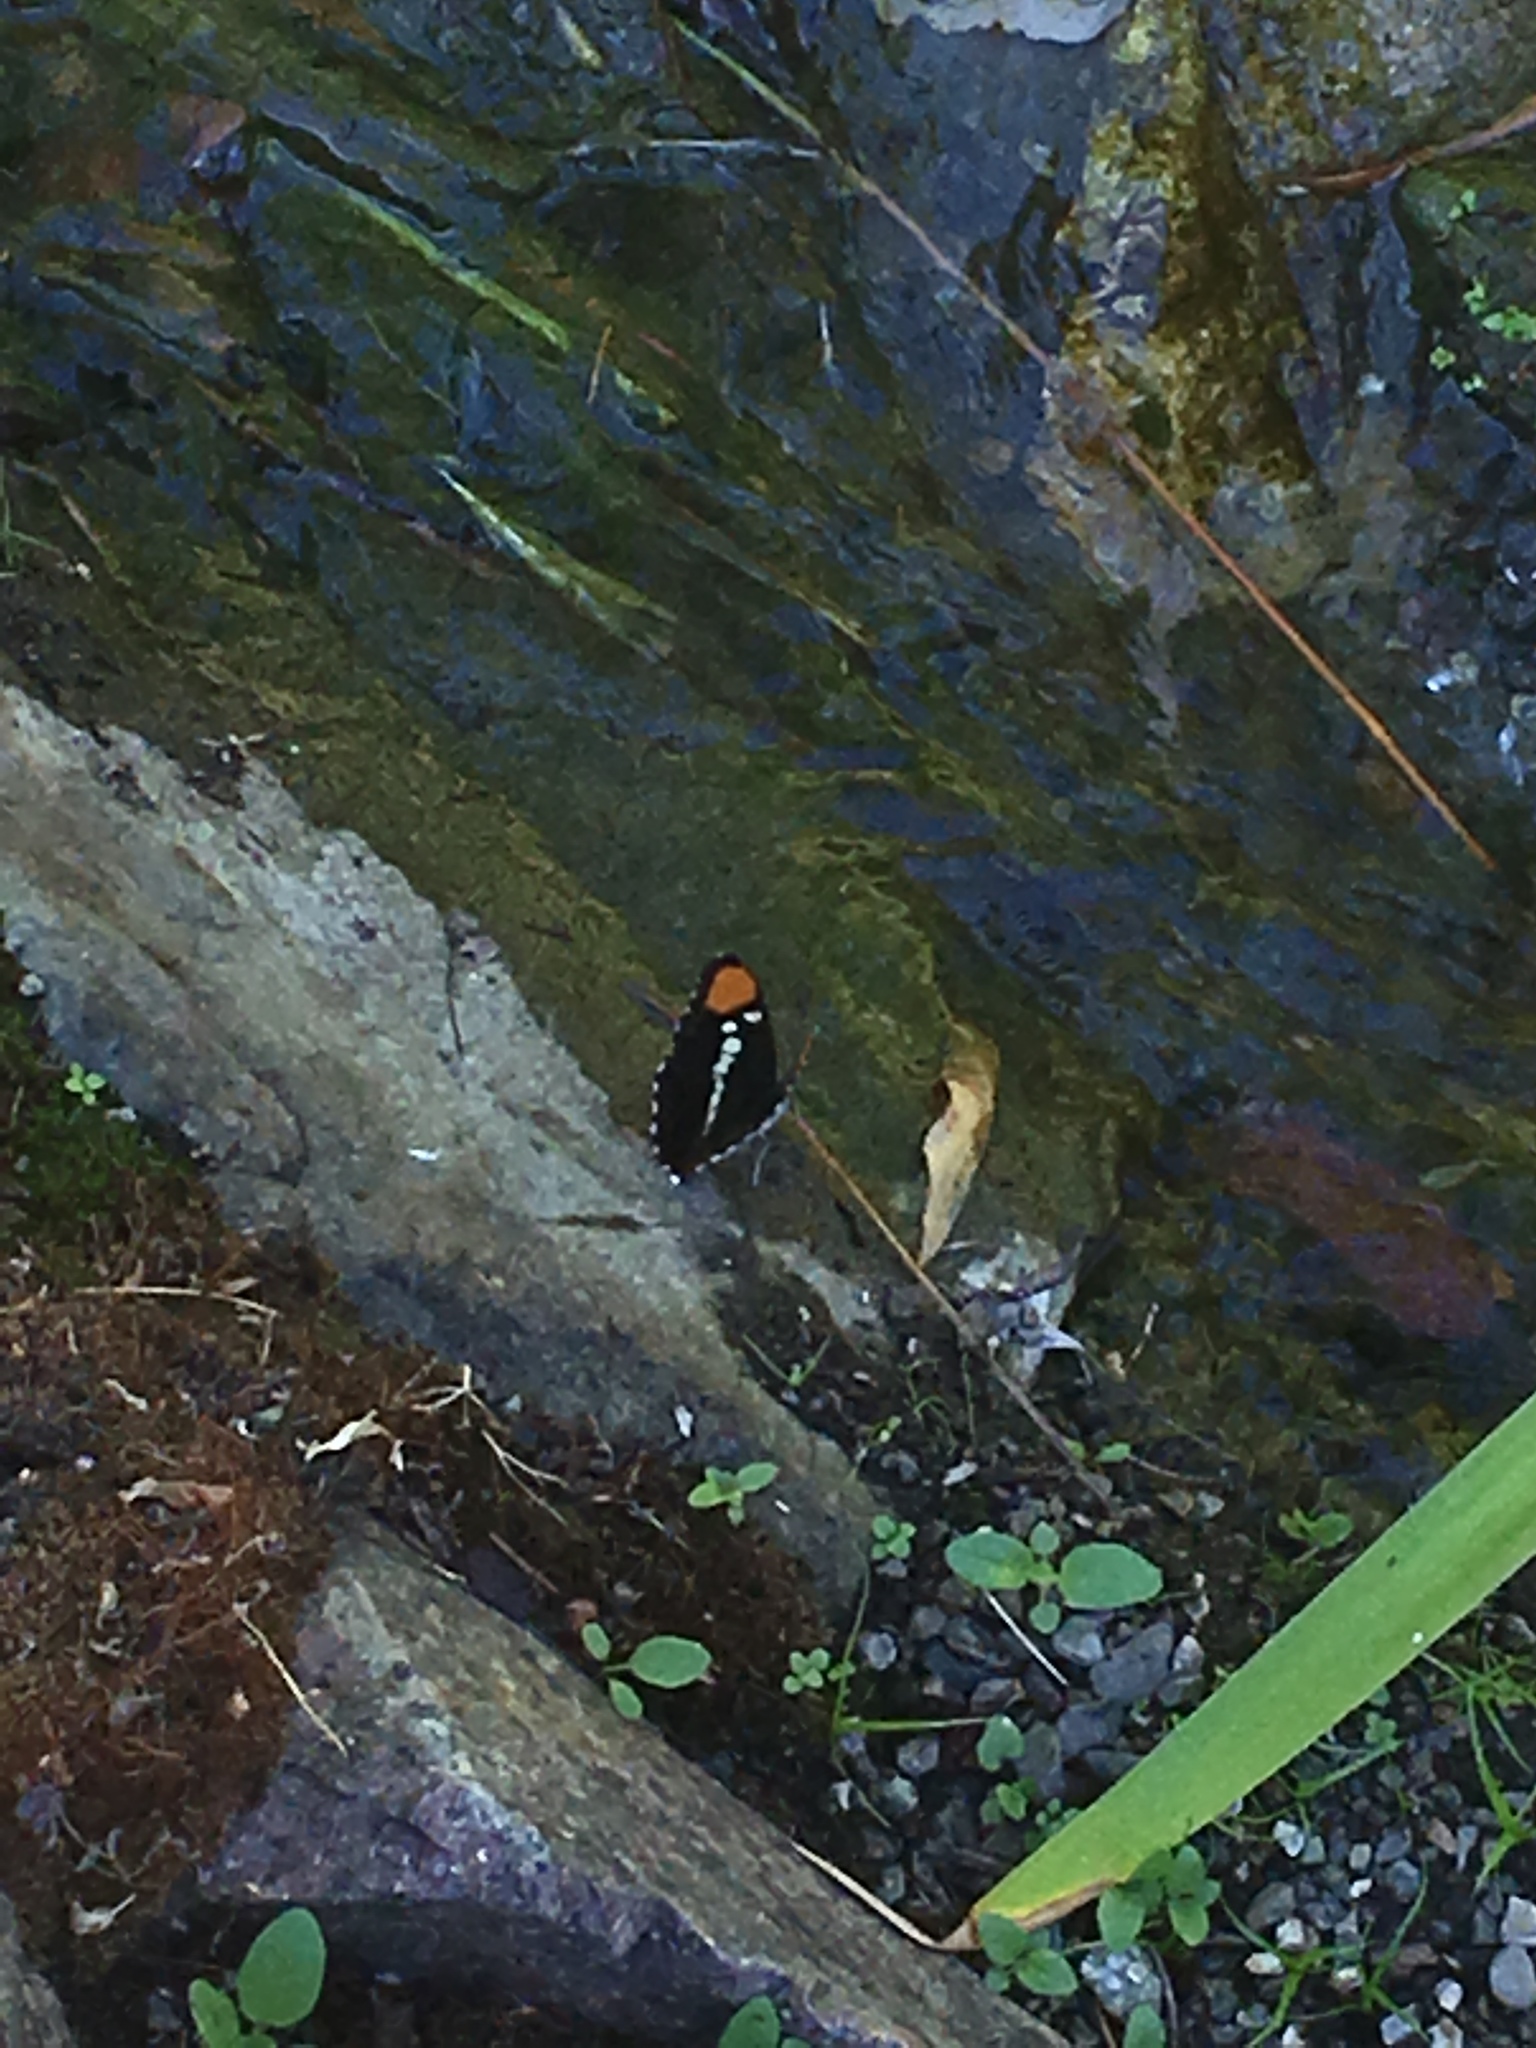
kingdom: Animalia
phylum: Arthropoda
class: Insecta
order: Lepidoptera
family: Nymphalidae
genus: Limenitis
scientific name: Limenitis bredowii
